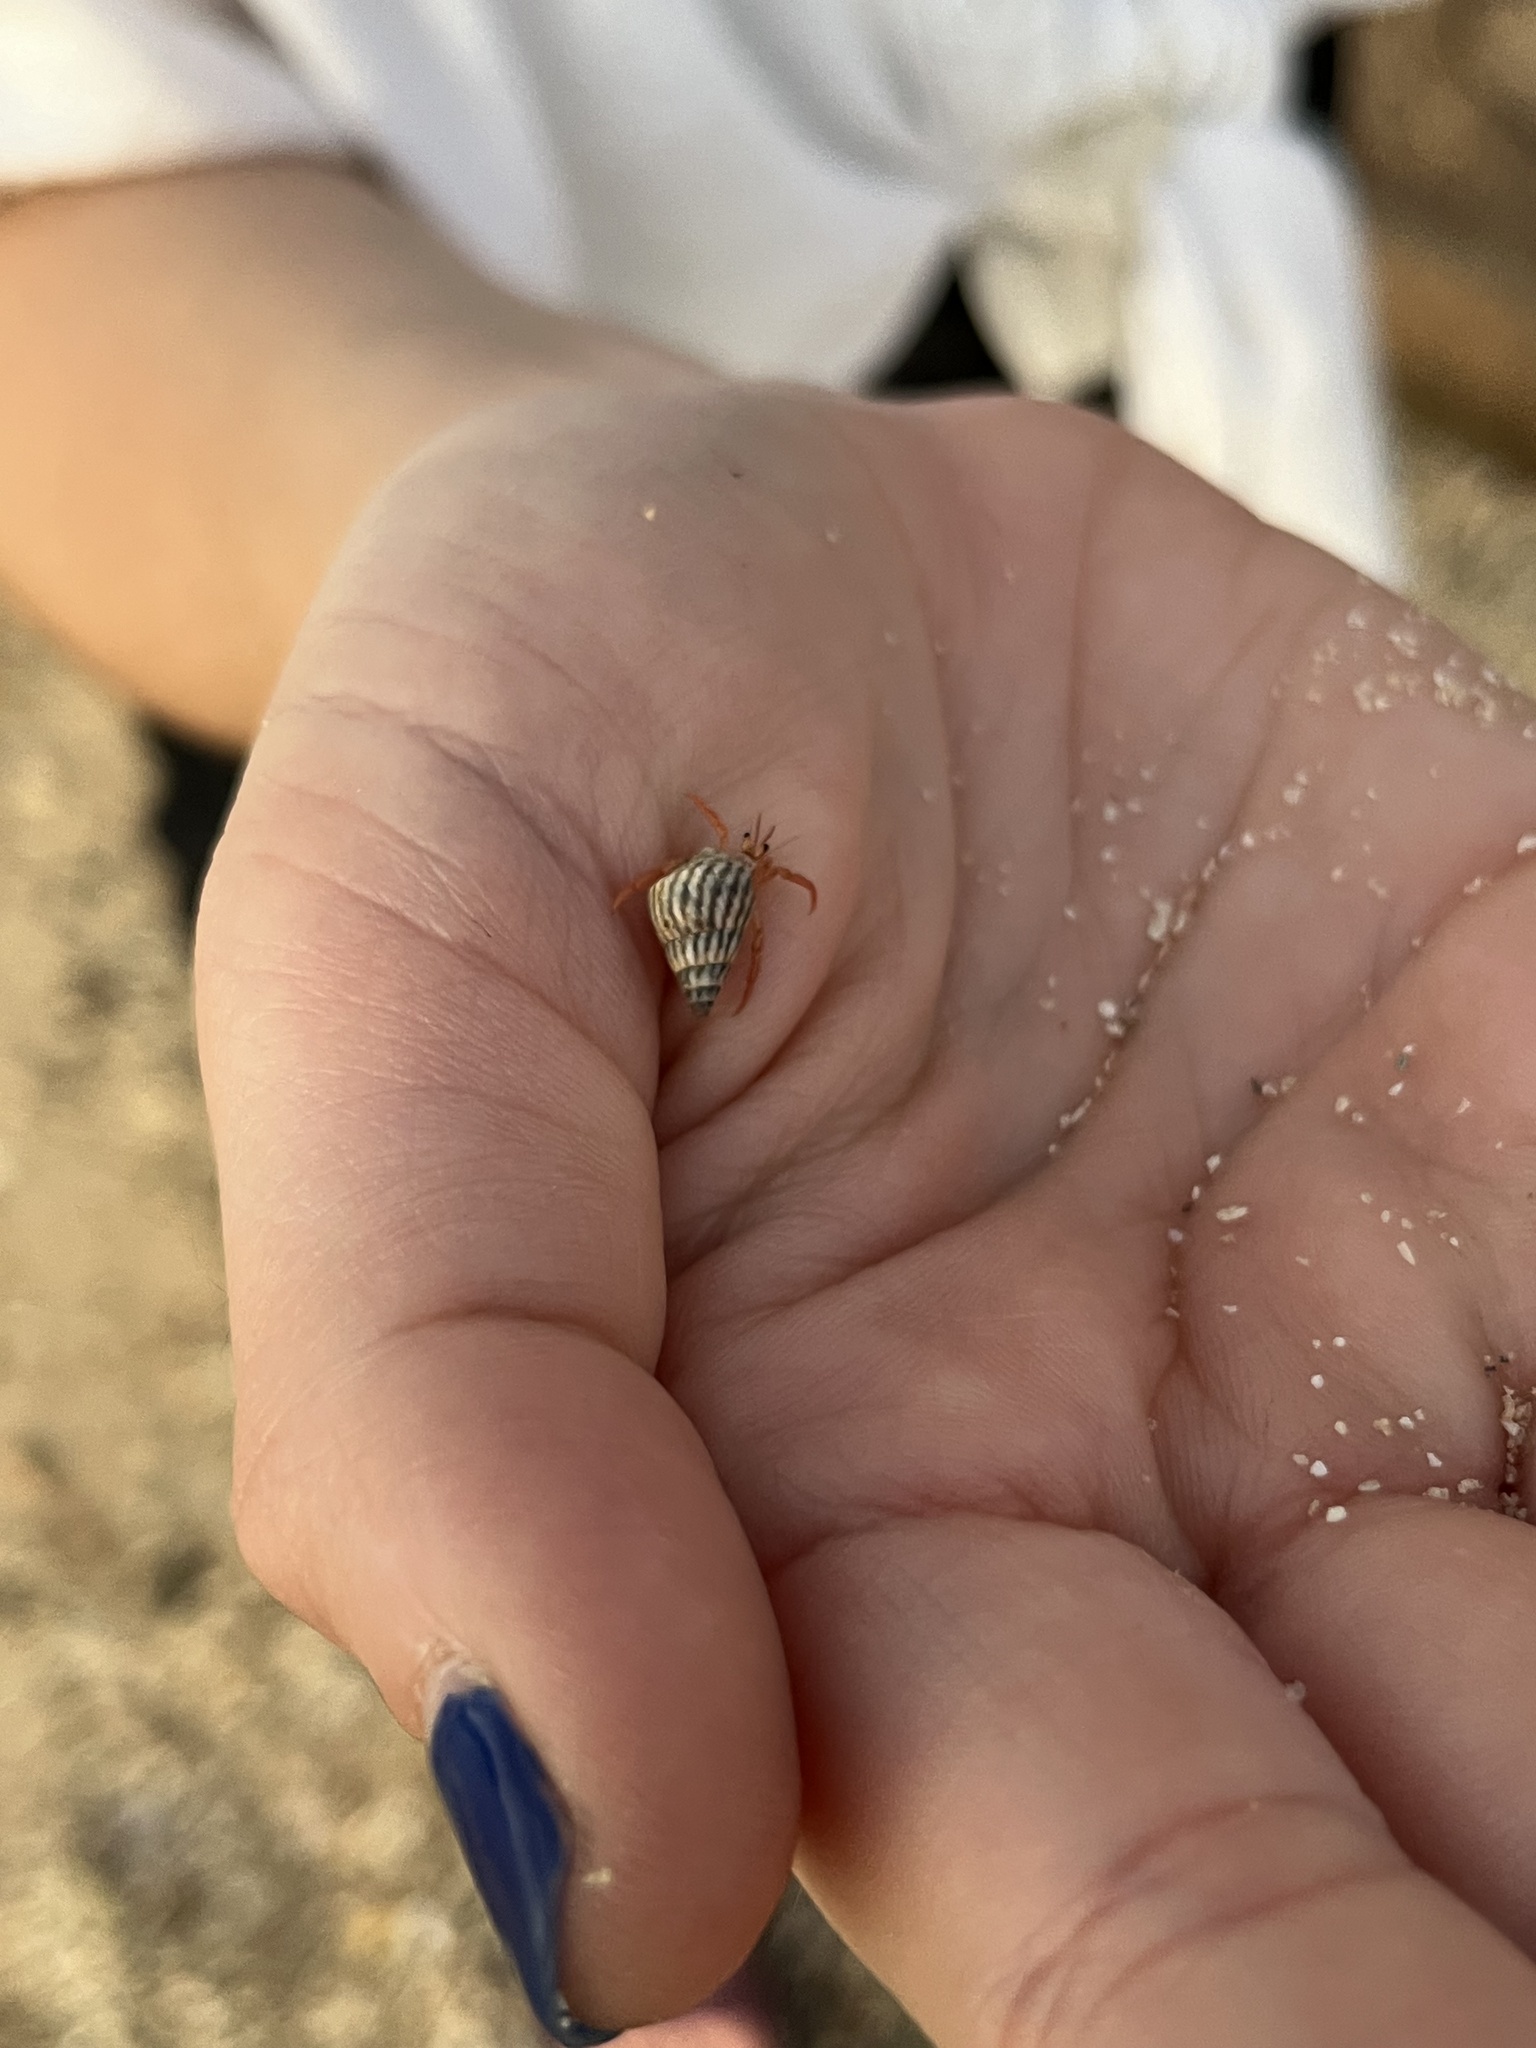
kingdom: Animalia
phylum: Arthropoda
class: Malacostraca
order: Decapoda
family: Coenobitidae
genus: Coenobita
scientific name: Coenobita clypeatus
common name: Caribbean hermit crab
